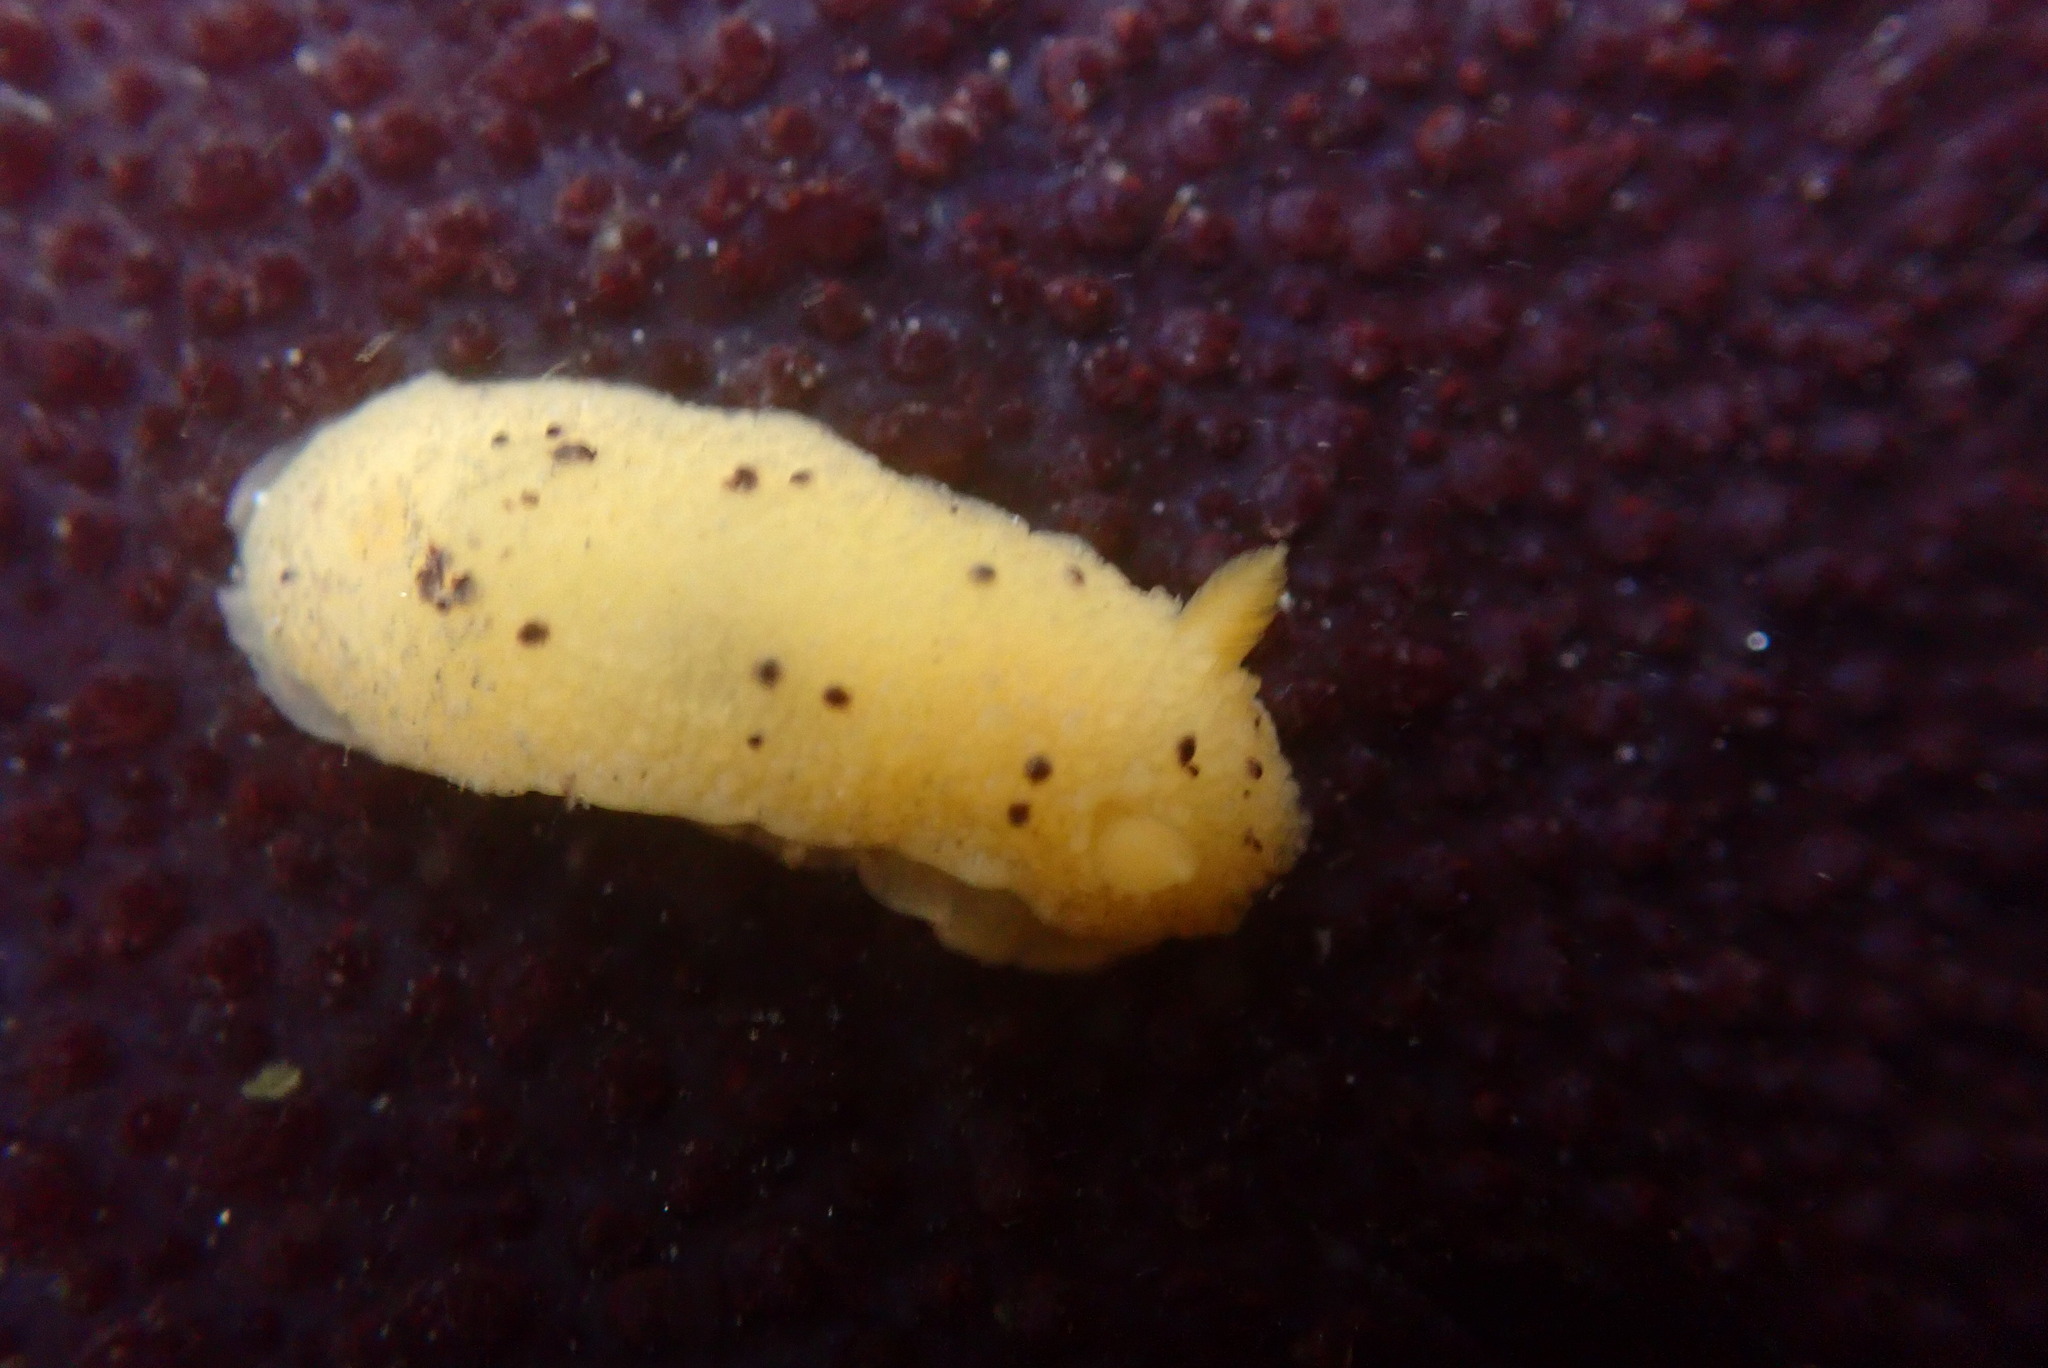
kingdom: Animalia
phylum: Mollusca
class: Gastropoda
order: Nudibranchia
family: Dorididae
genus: Doris
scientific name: Doris montereyensis
